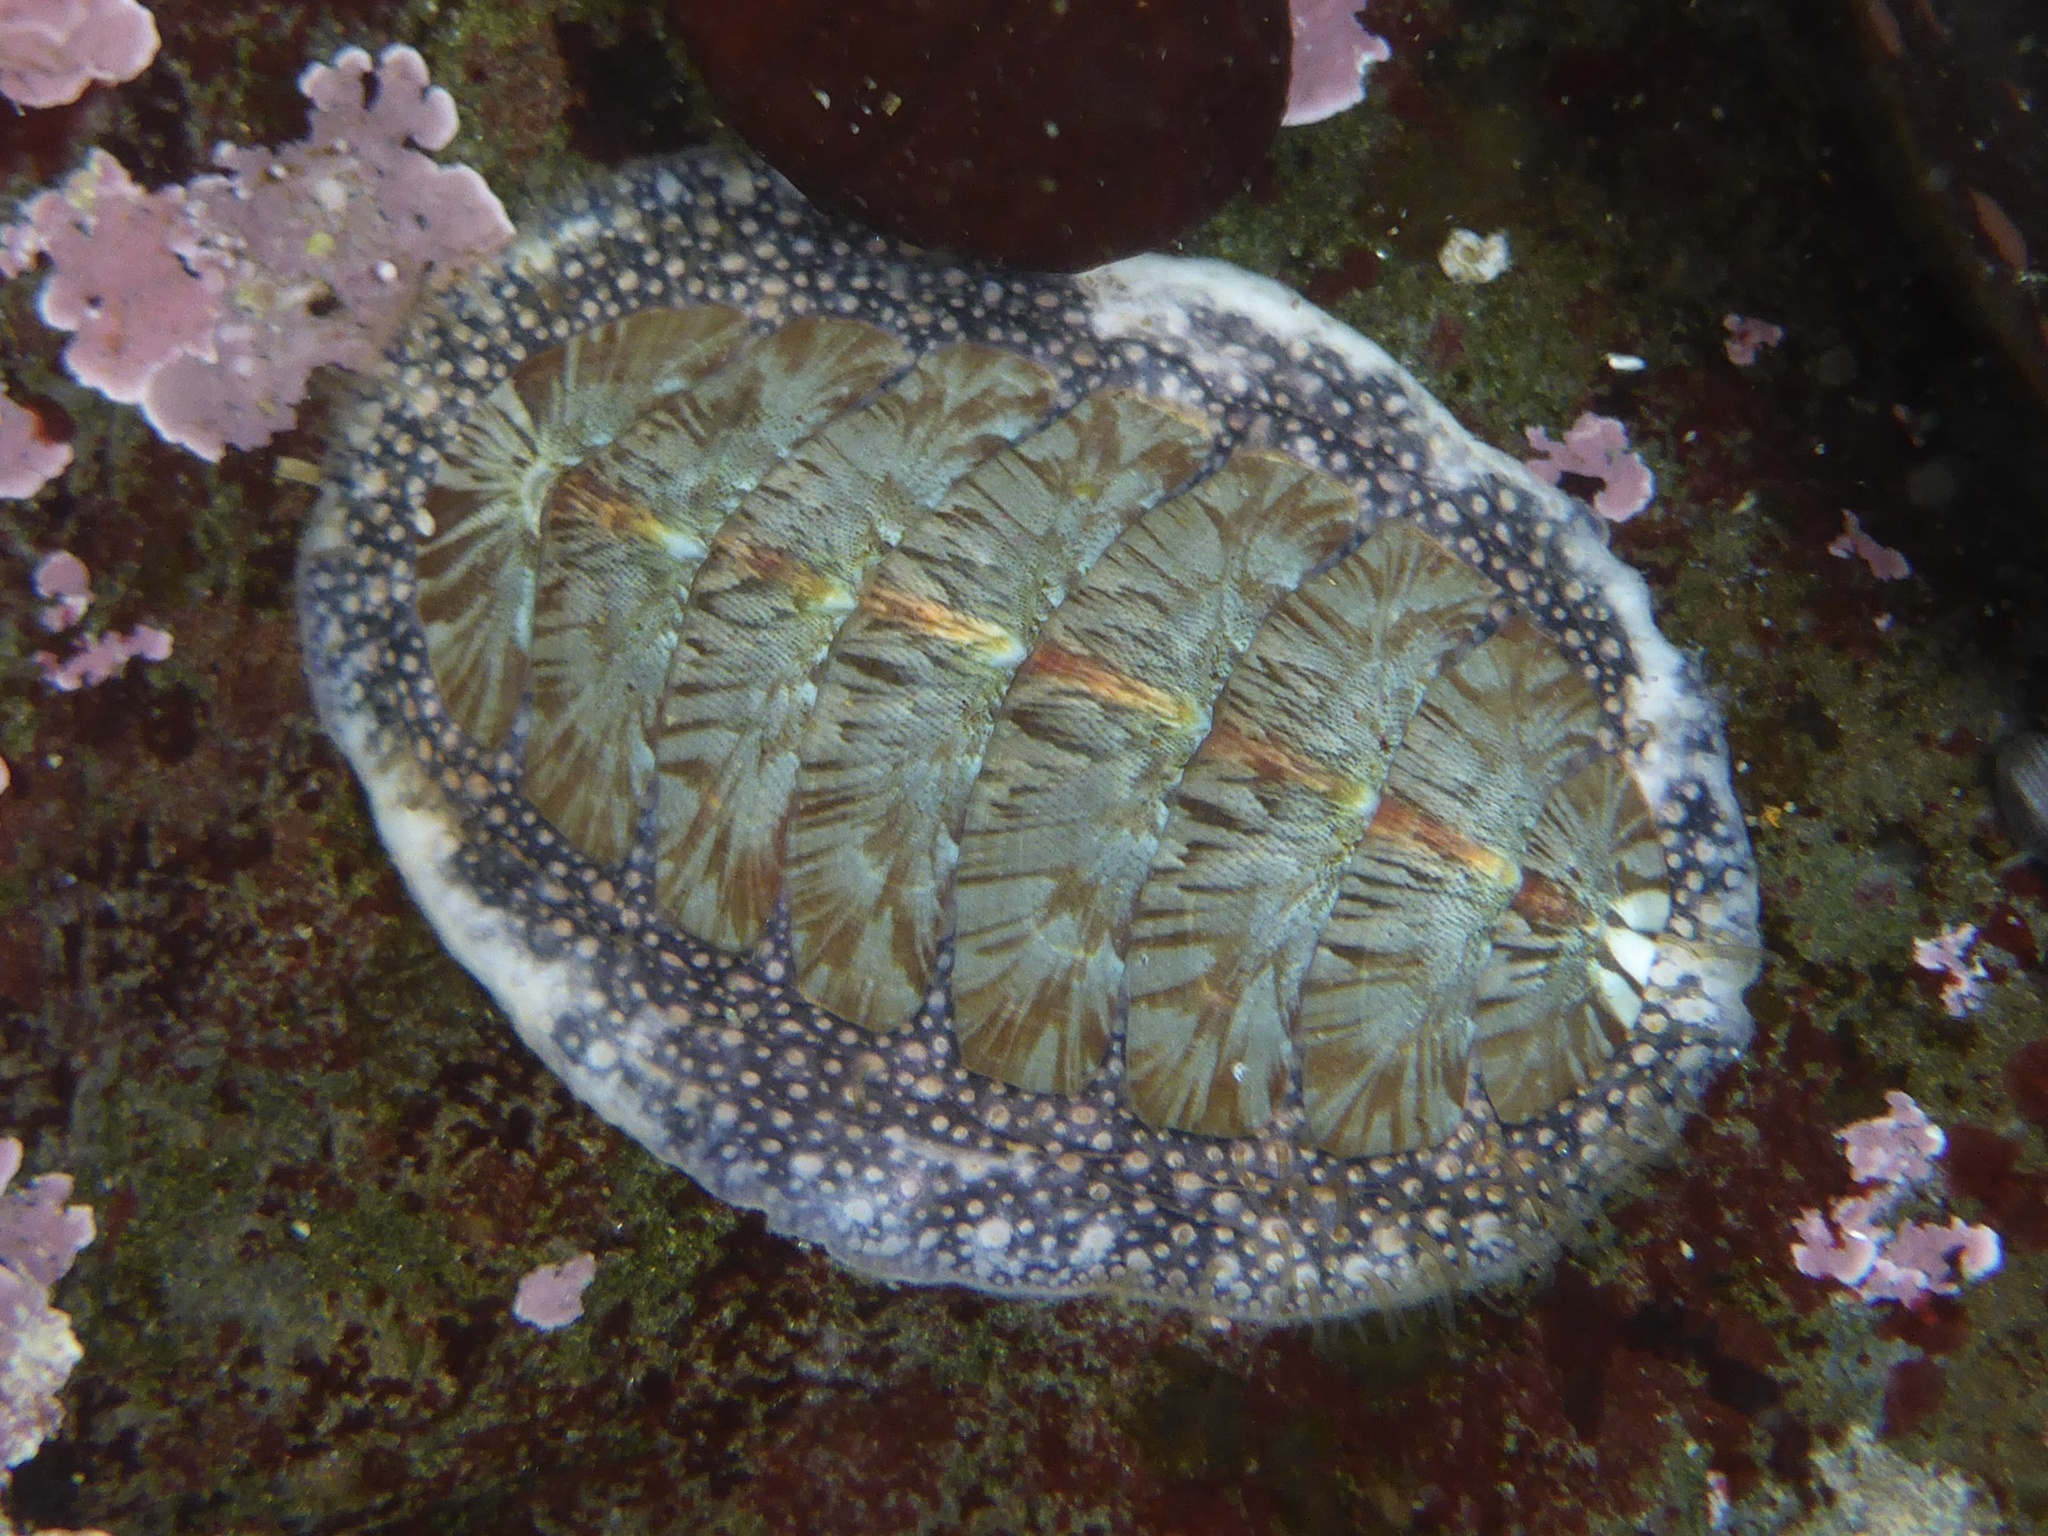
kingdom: Animalia
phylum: Mollusca
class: Polyplacophora
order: Chitonida
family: Mopaliidae
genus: Mopalia
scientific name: Mopalia lignosa
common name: Woody chiton
